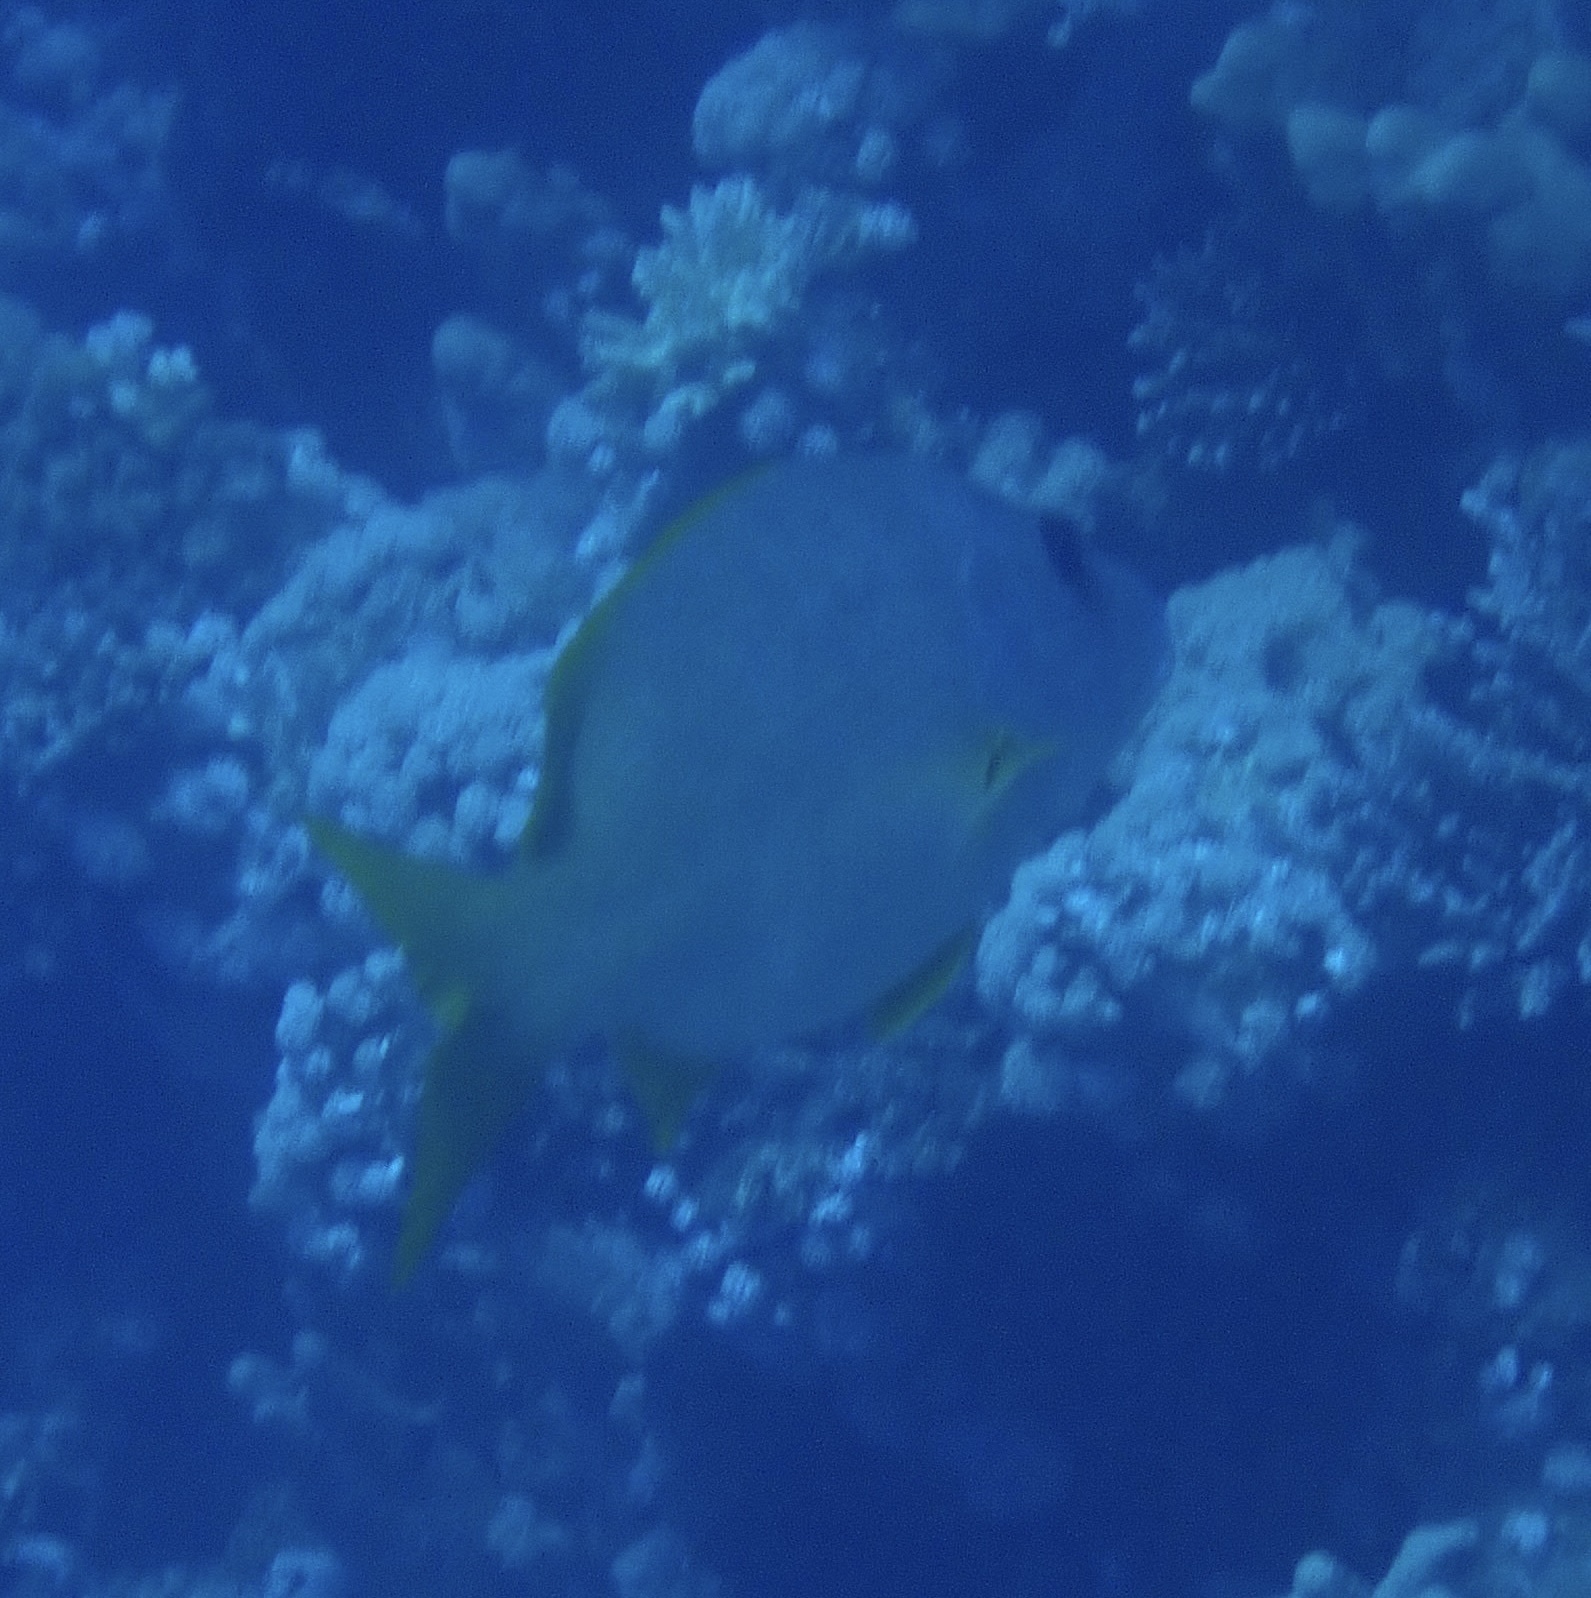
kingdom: Animalia
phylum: Chordata
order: Perciformes
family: Lutjanidae
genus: Lutjanus
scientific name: Lutjanus monostigma
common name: Onespot snapper
